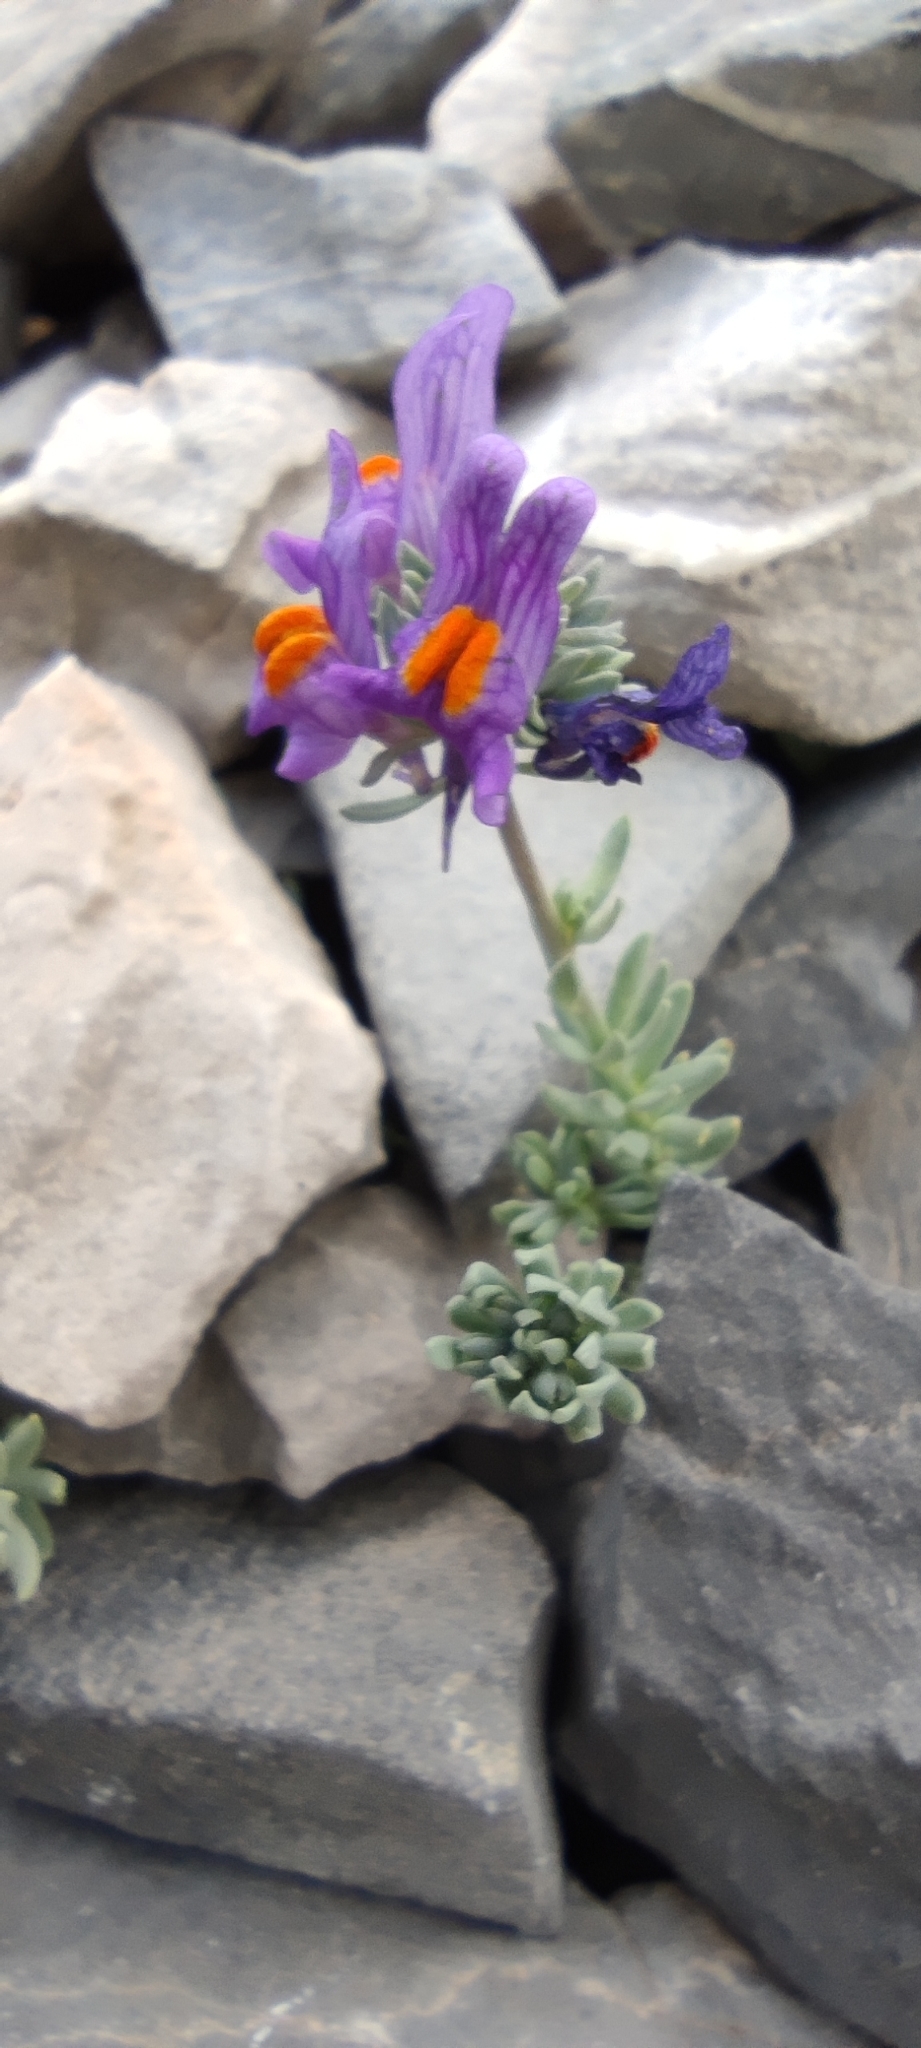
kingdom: Plantae
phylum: Tracheophyta
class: Magnoliopsida
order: Lamiales
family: Plantaginaceae
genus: Linaria
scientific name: Linaria alpina
